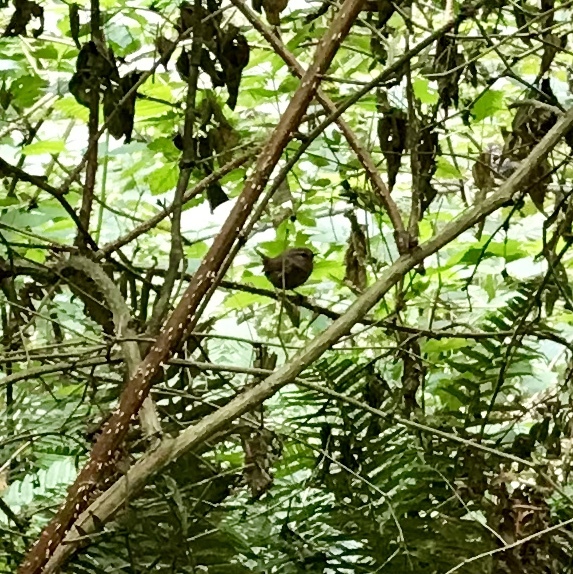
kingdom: Animalia
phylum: Chordata
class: Aves
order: Passeriformes
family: Troglodytidae
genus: Troglodytes
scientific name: Troglodytes pacificus
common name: Pacific wren
